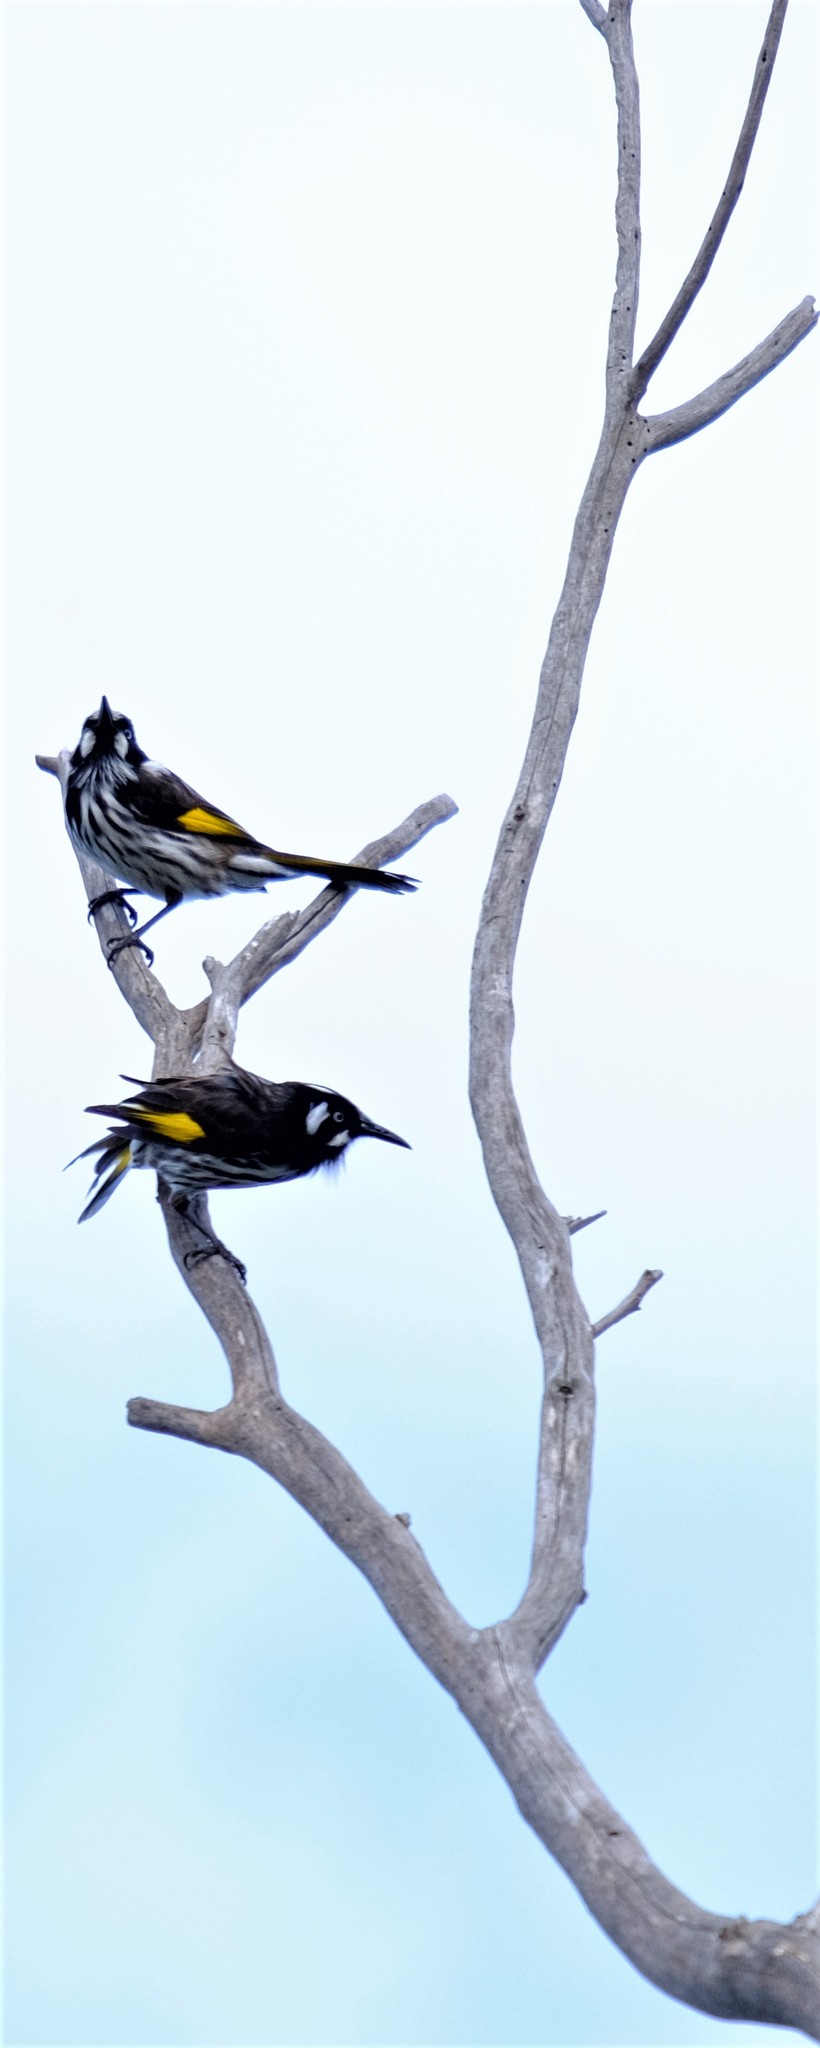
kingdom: Animalia
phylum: Chordata
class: Aves
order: Passeriformes
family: Meliphagidae
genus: Phylidonyris
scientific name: Phylidonyris novaehollandiae
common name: New holland honeyeater
